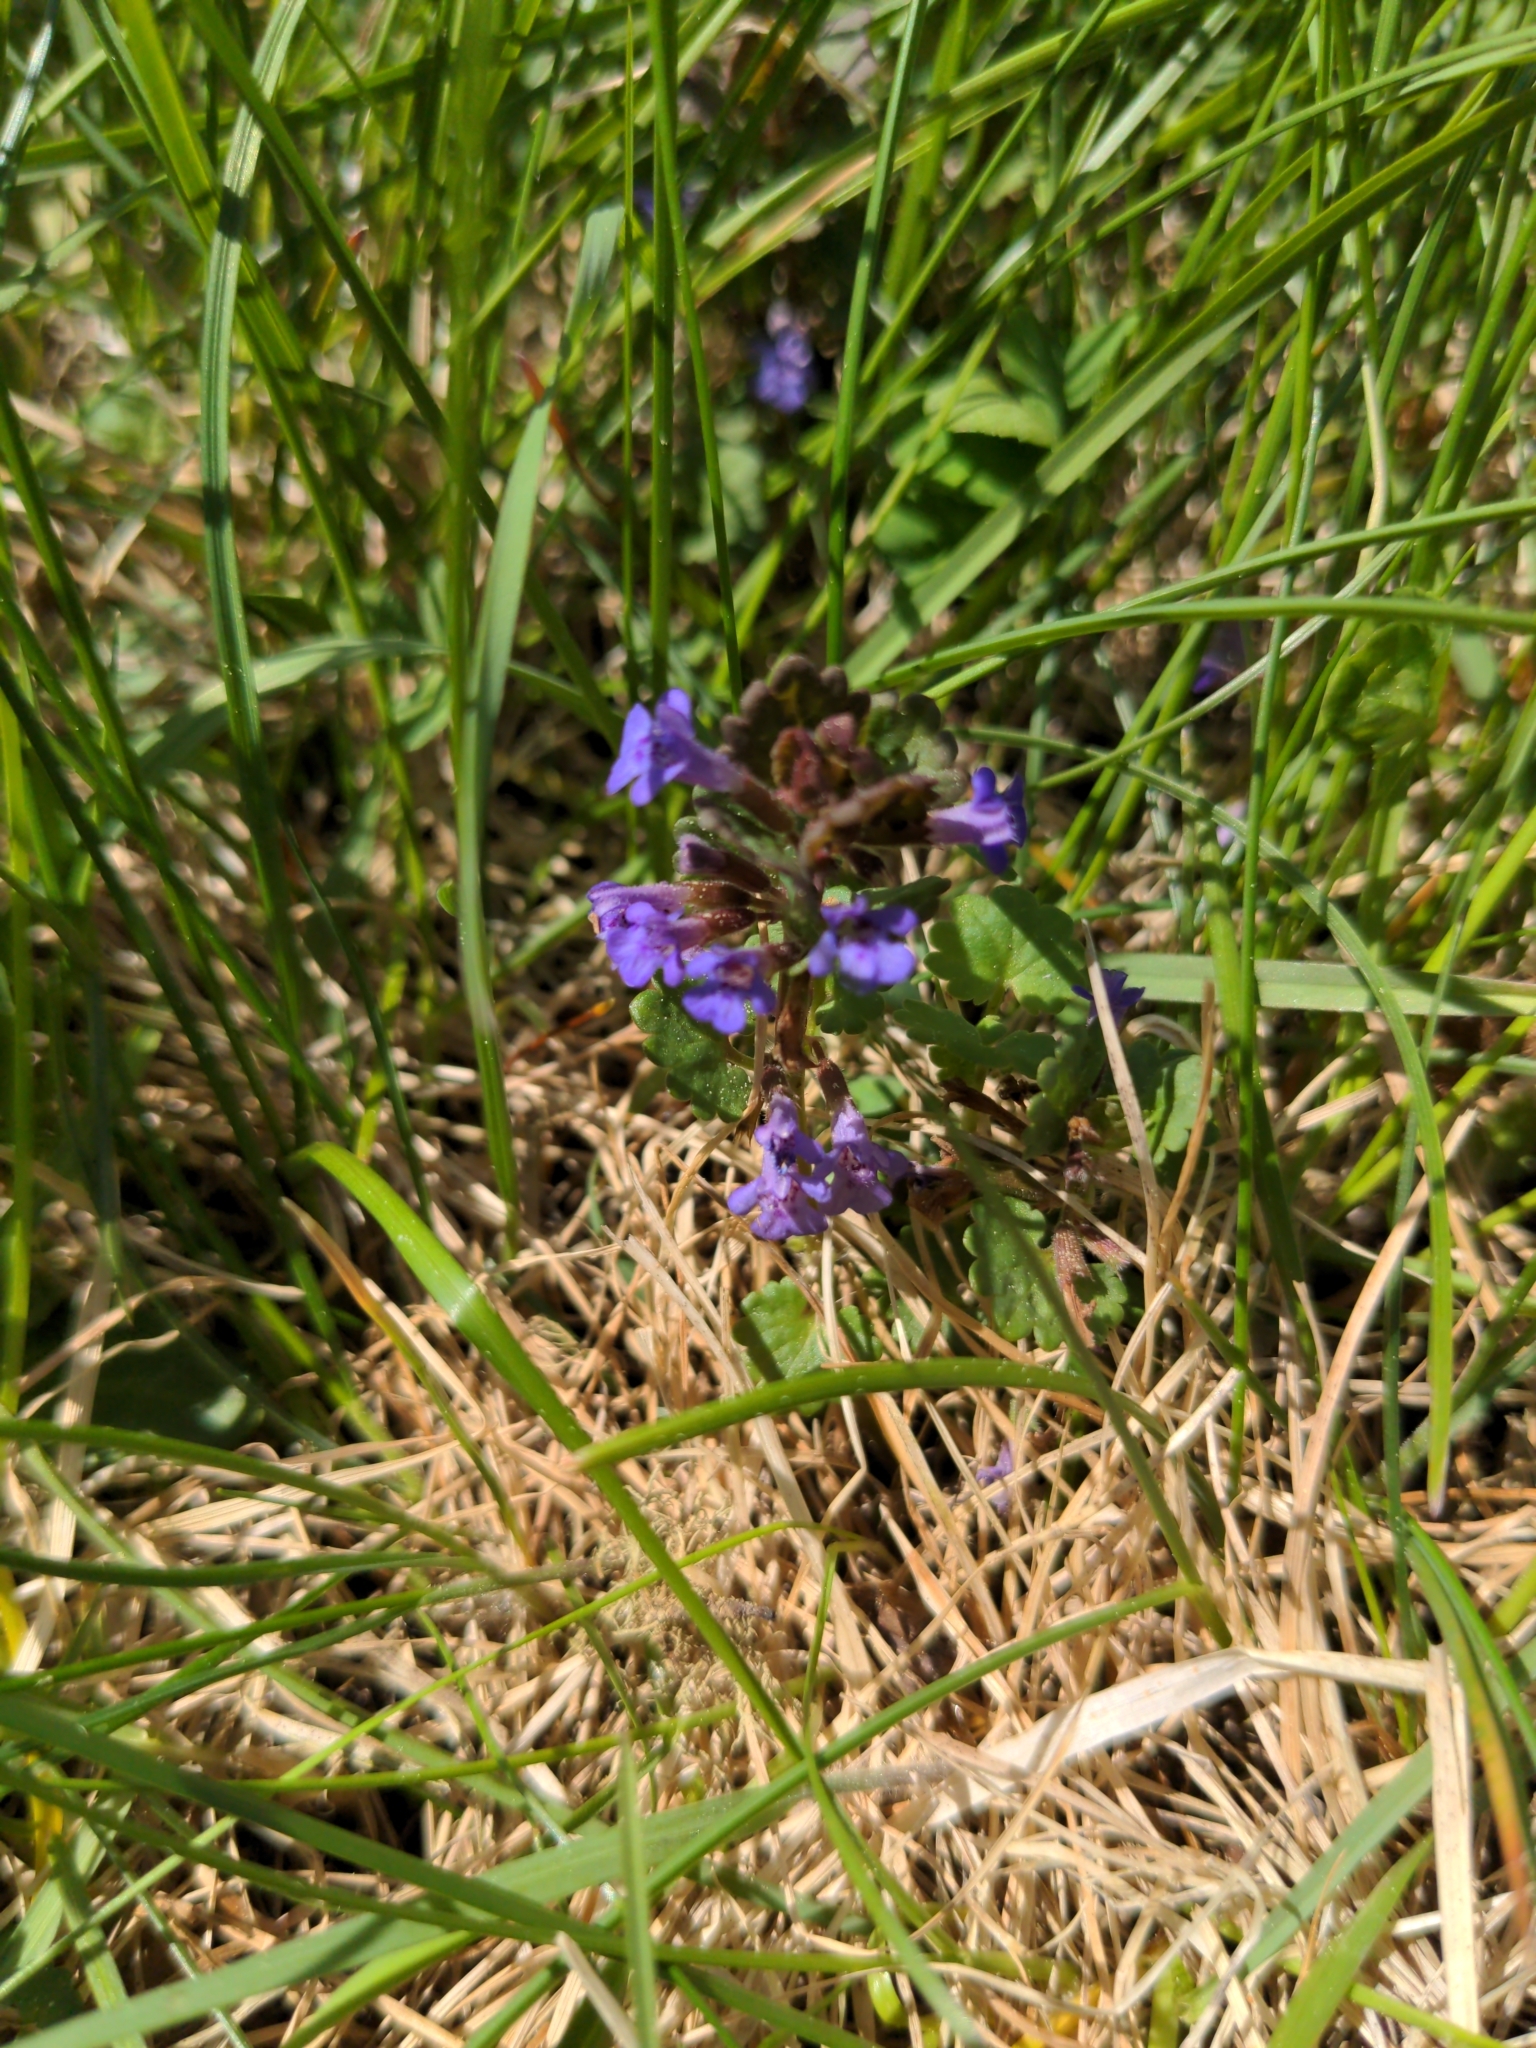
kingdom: Plantae
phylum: Tracheophyta
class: Magnoliopsida
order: Lamiales
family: Lamiaceae
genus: Glechoma
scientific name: Glechoma hederacea
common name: Ground ivy
